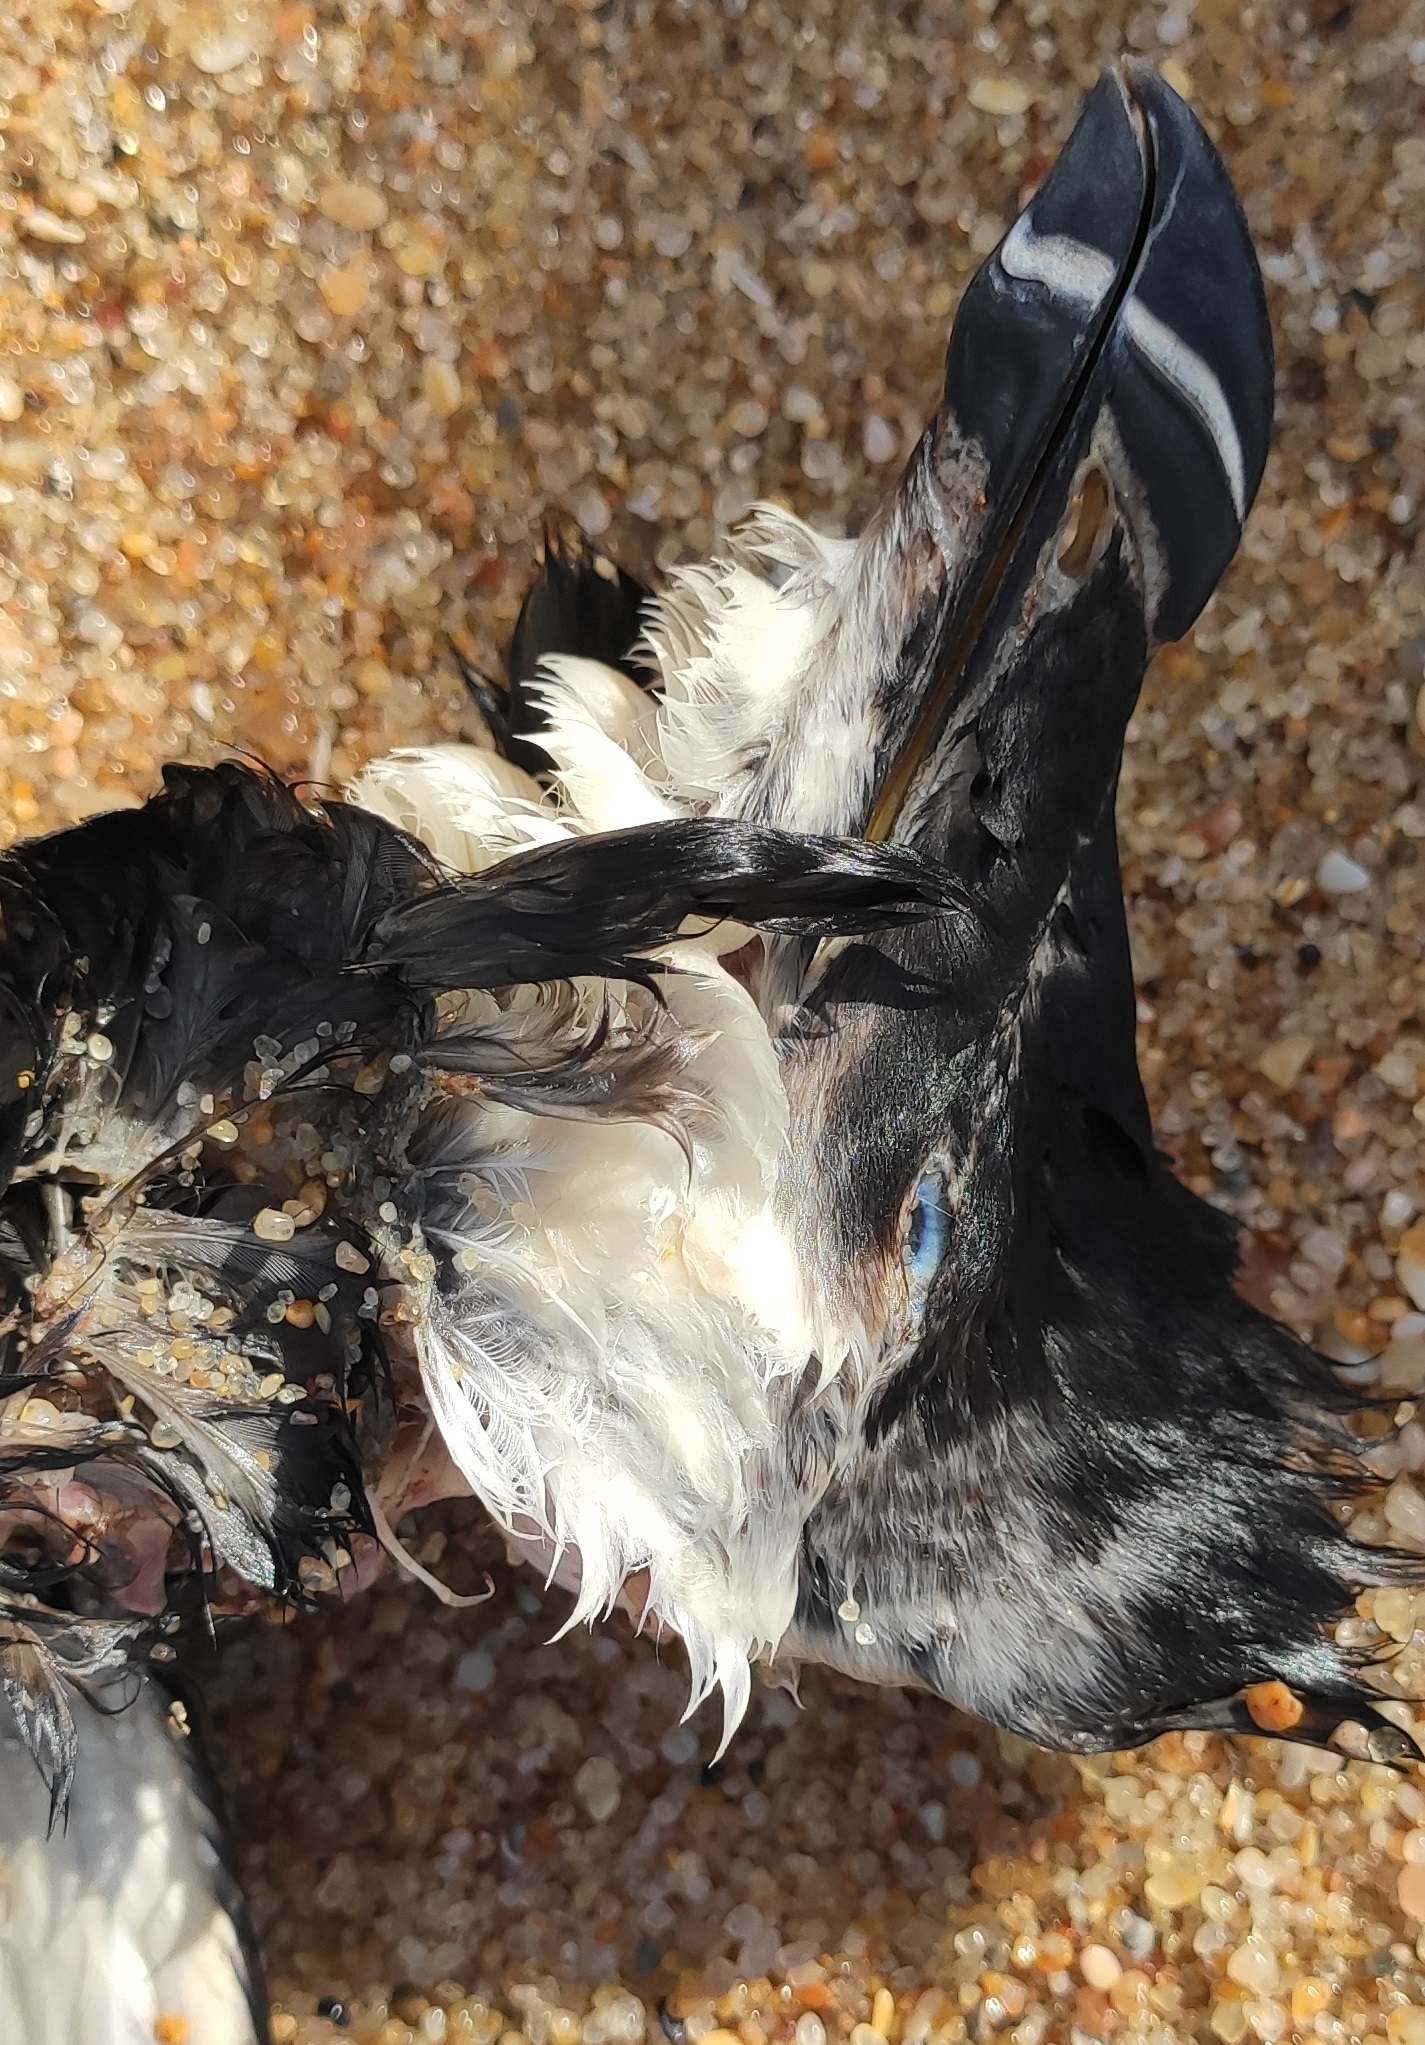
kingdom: Animalia
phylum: Chordata
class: Aves
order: Charadriiformes
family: Alcidae
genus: Alca
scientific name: Alca torda
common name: Razorbill
